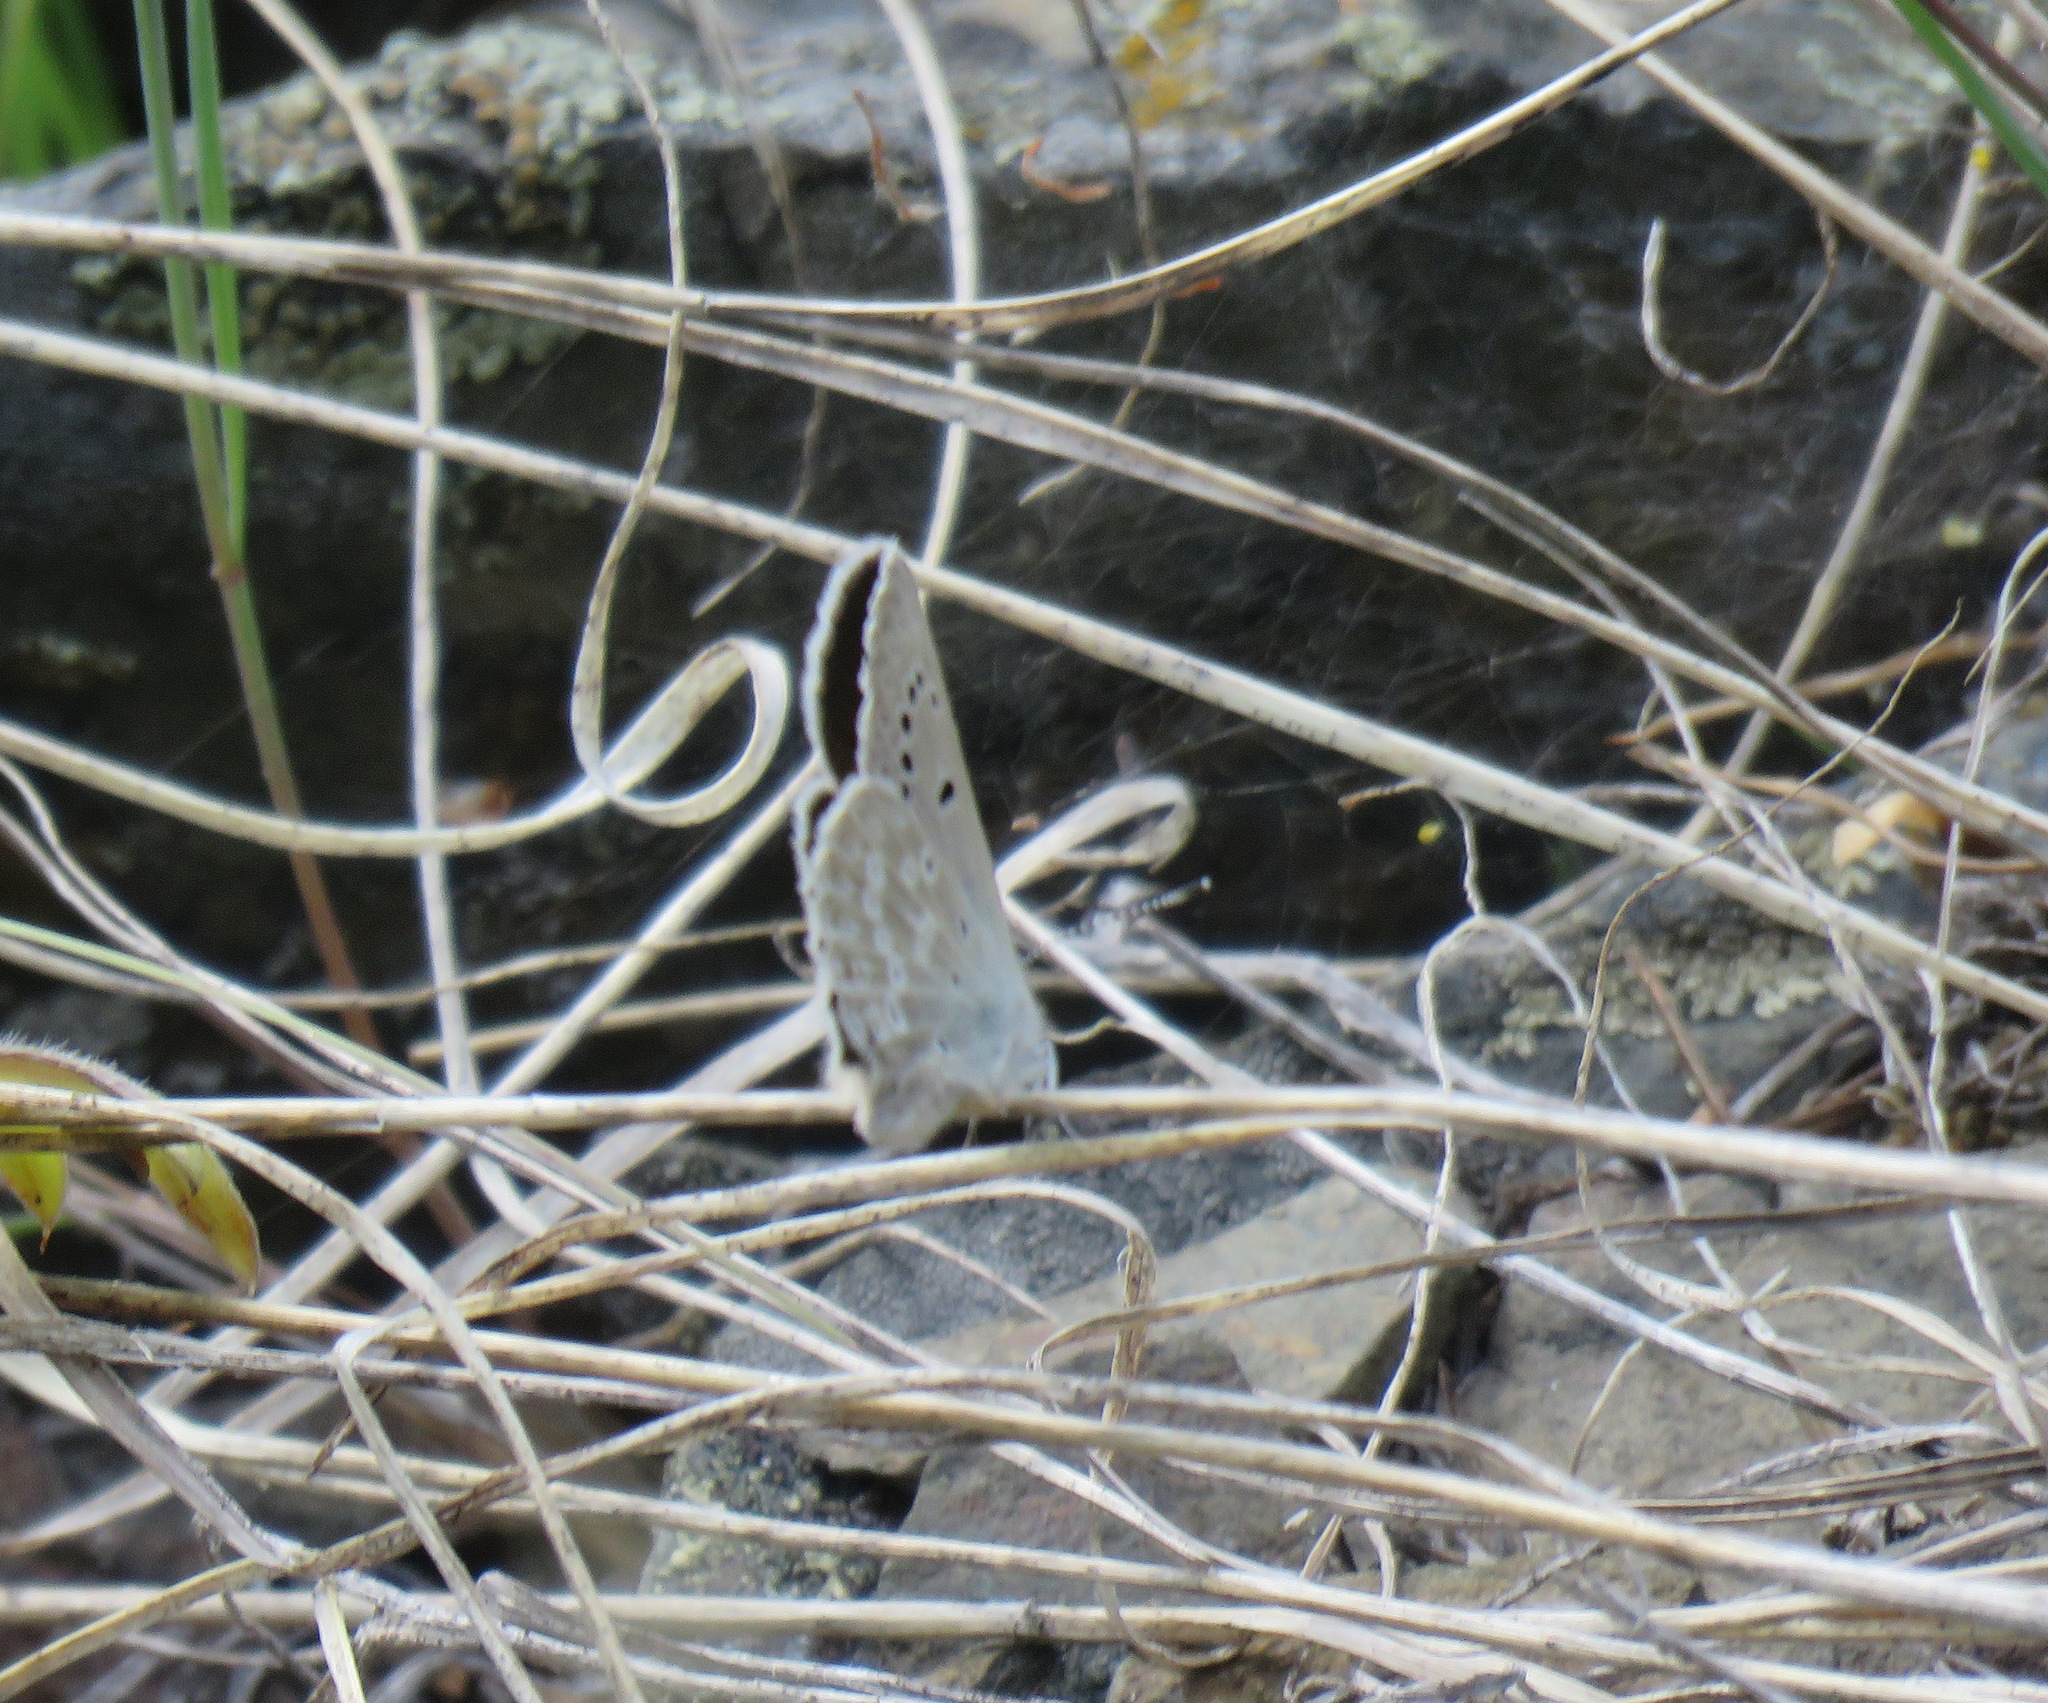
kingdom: Animalia
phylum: Arthropoda
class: Insecta
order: Lepidoptera
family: Lycaenidae
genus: Icaricia
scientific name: Icaricia icarioides
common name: Boisduval's blue
